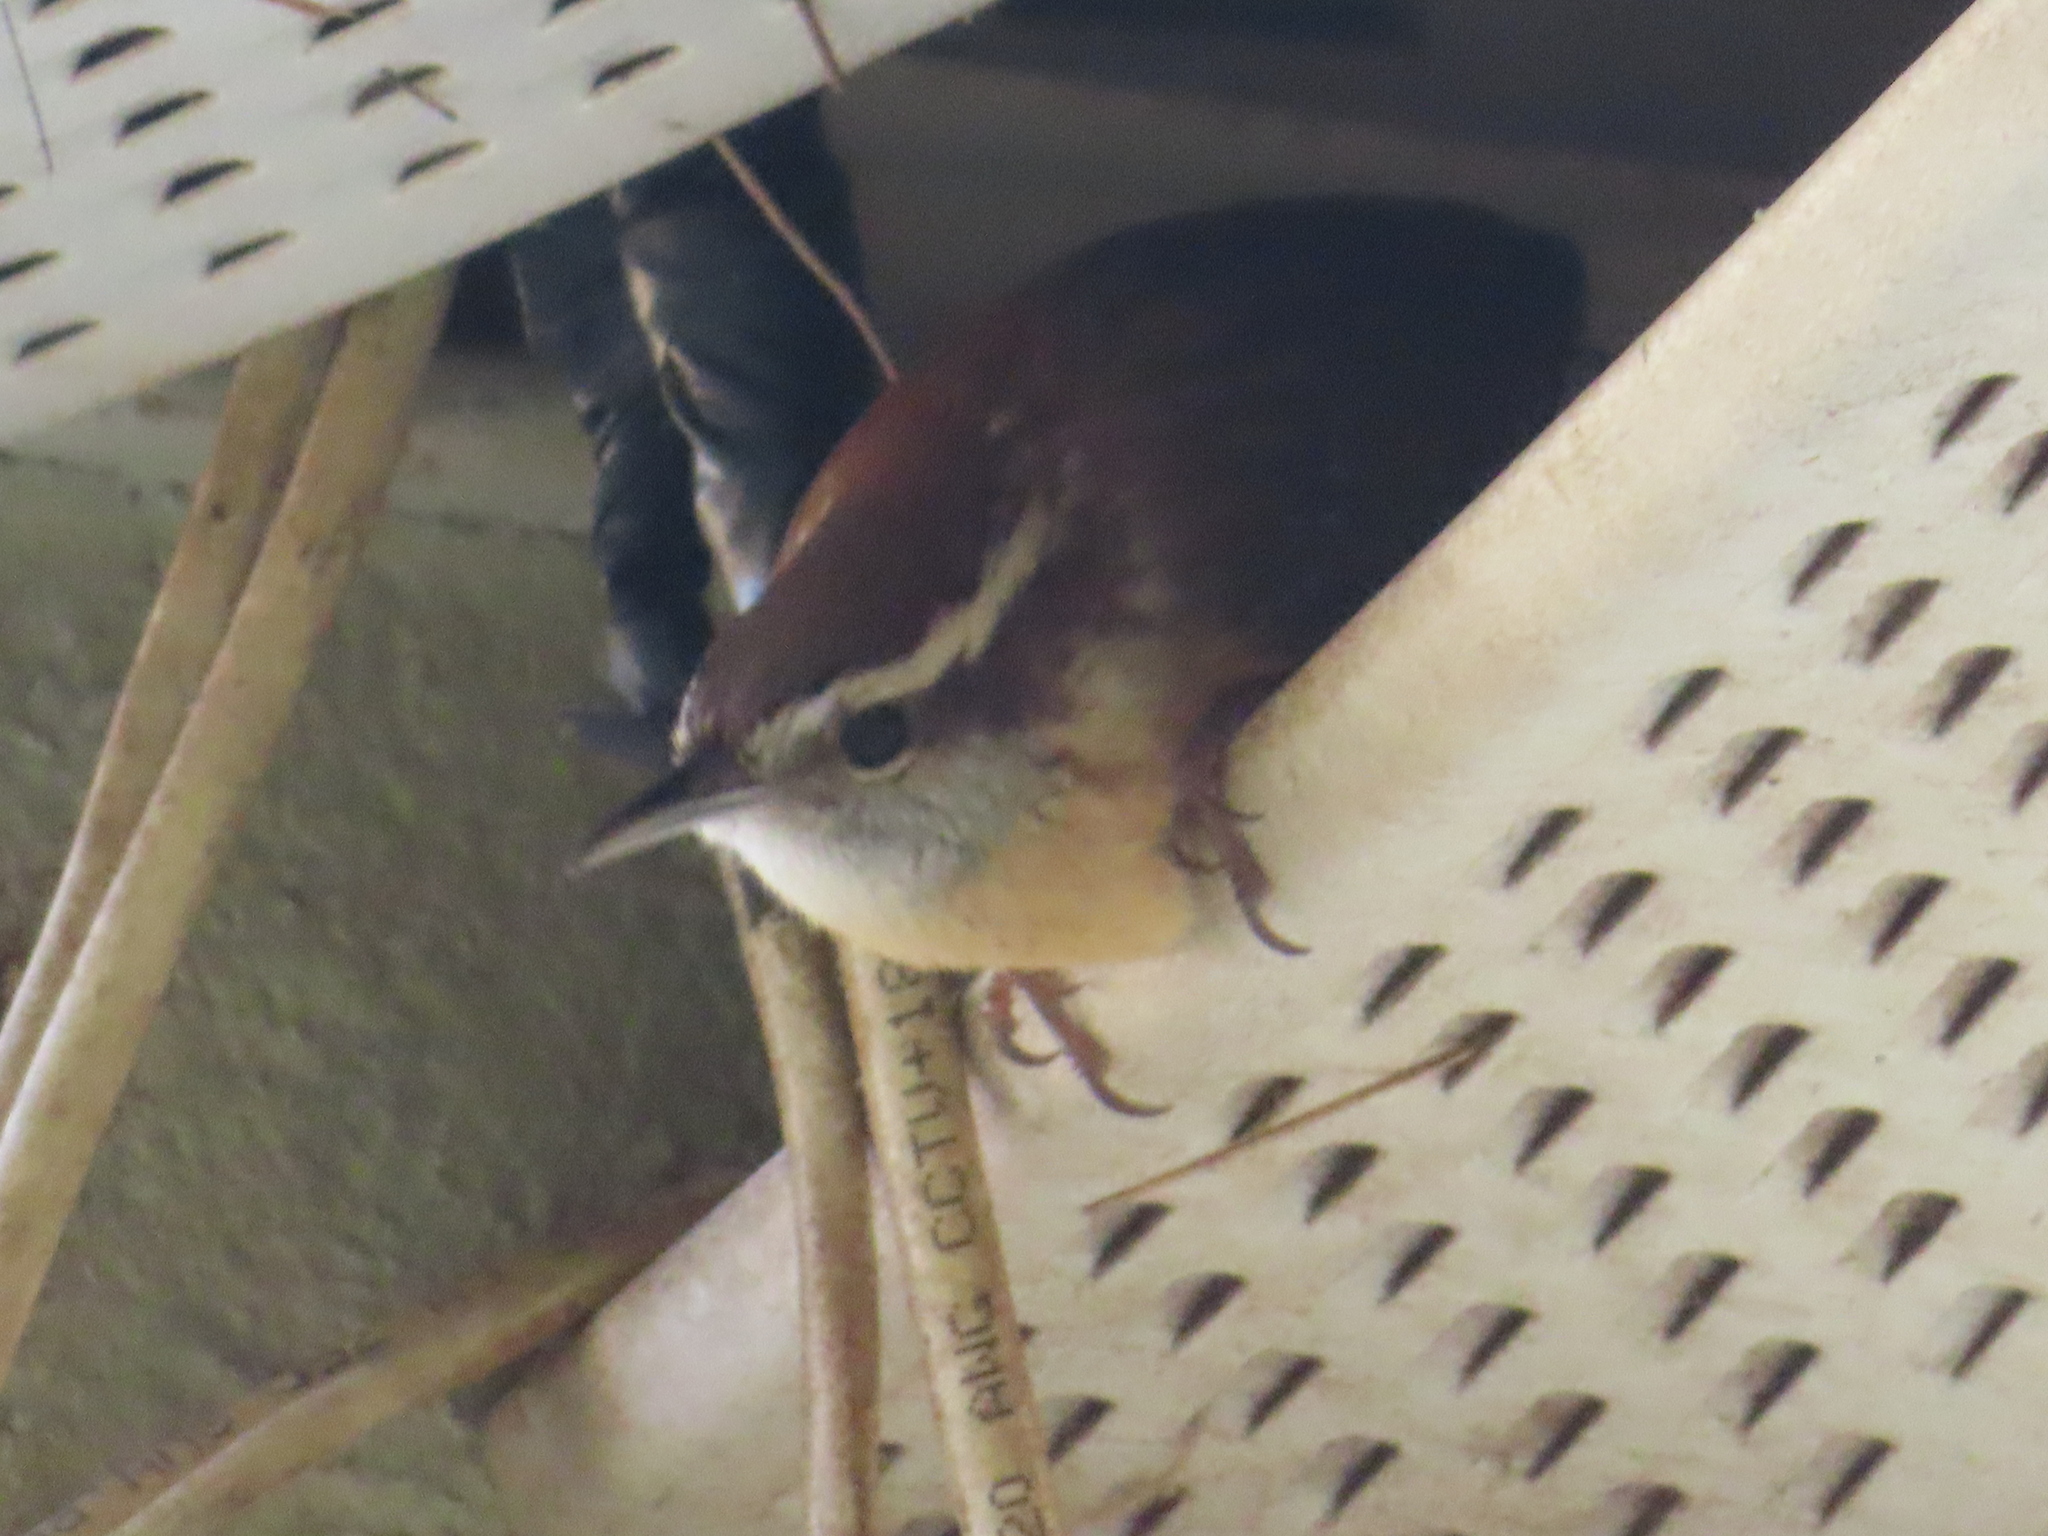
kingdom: Animalia
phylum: Chordata
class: Aves
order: Passeriformes
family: Troglodytidae
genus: Thryothorus
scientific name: Thryothorus ludovicianus
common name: Carolina wren
